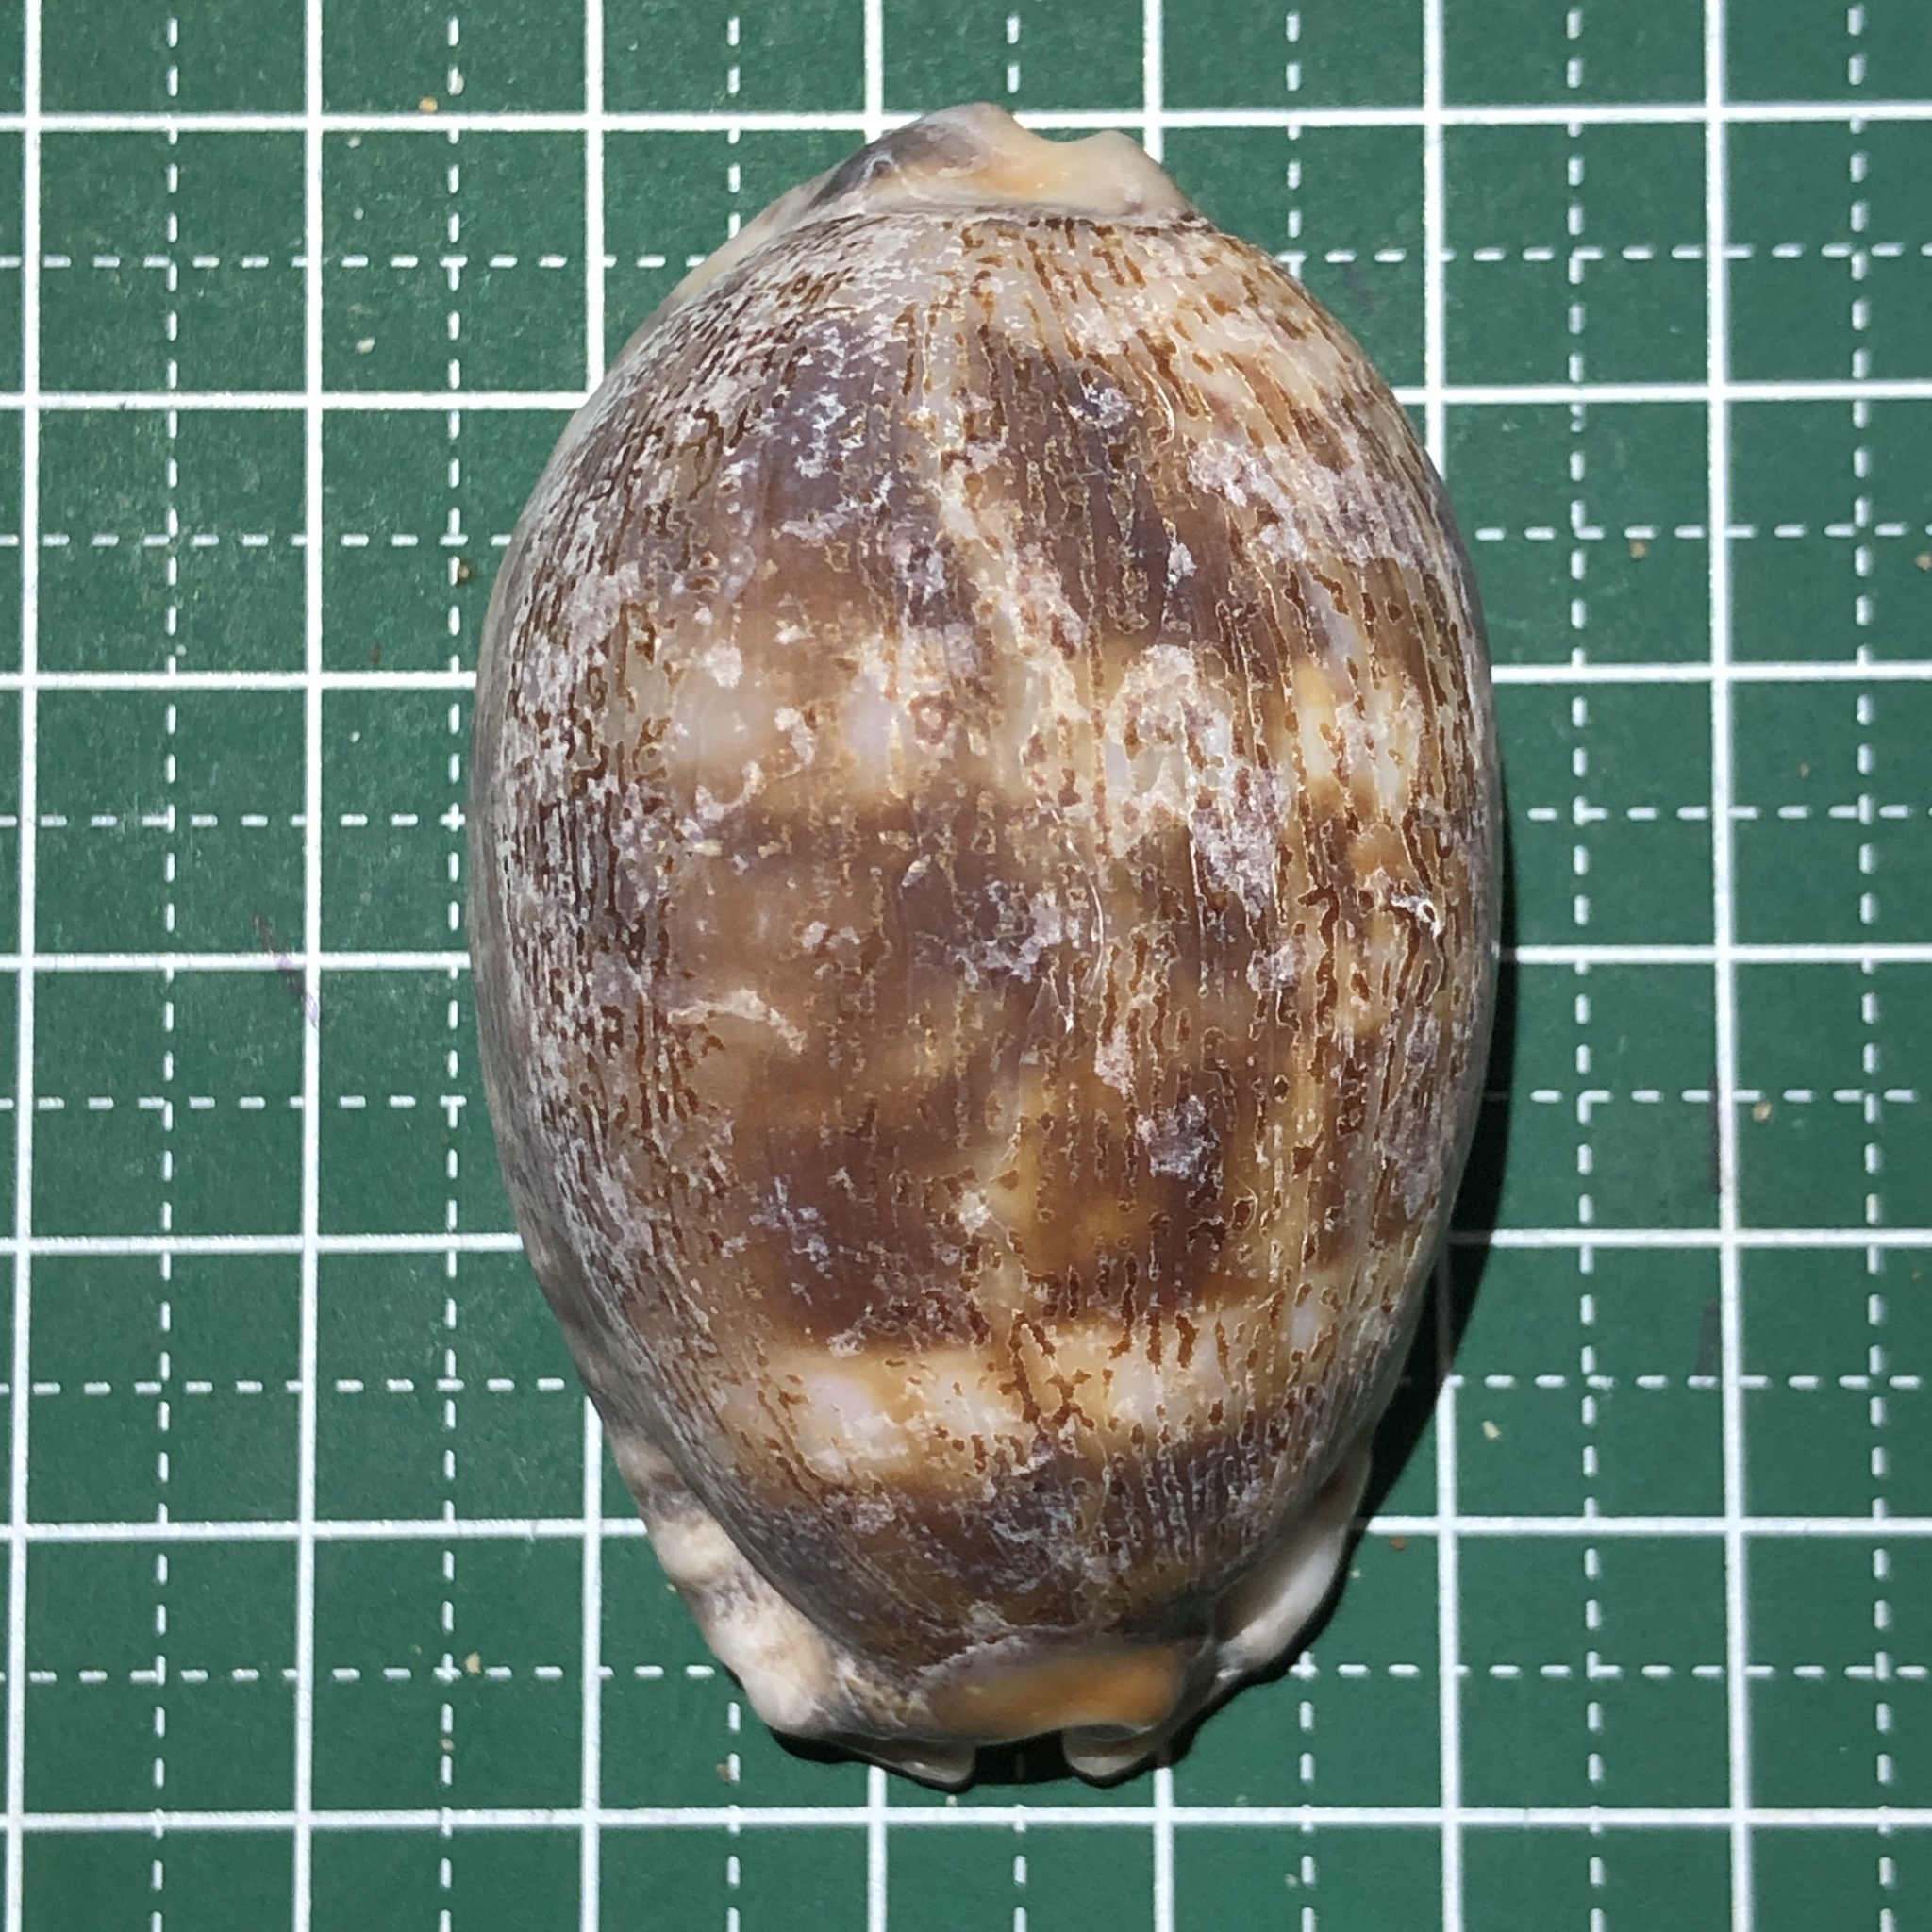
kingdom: Animalia
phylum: Mollusca
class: Gastropoda
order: Littorinimorpha
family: Cypraeidae
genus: Mauritia
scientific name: Mauritia arabica
